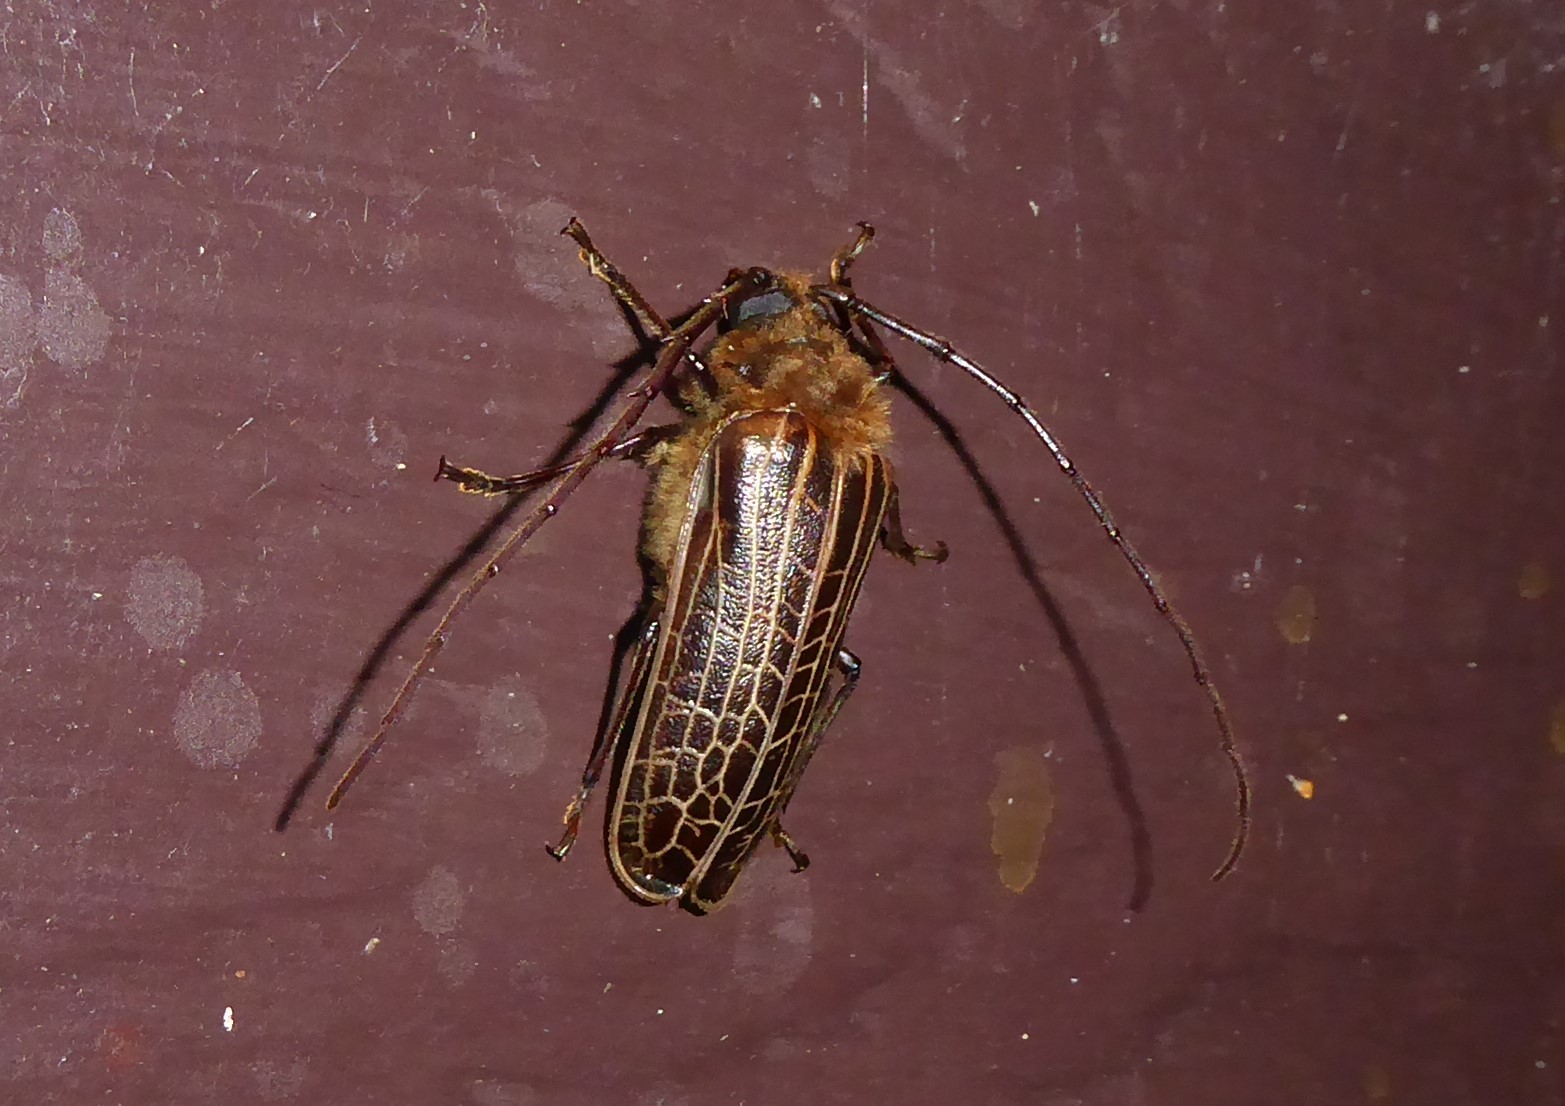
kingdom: Animalia
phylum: Arthropoda
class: Insecta
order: Coleoptera
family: Cerambycidae
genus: Prionoplus
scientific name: Prionoplus reticularis
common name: Huhu beetle
